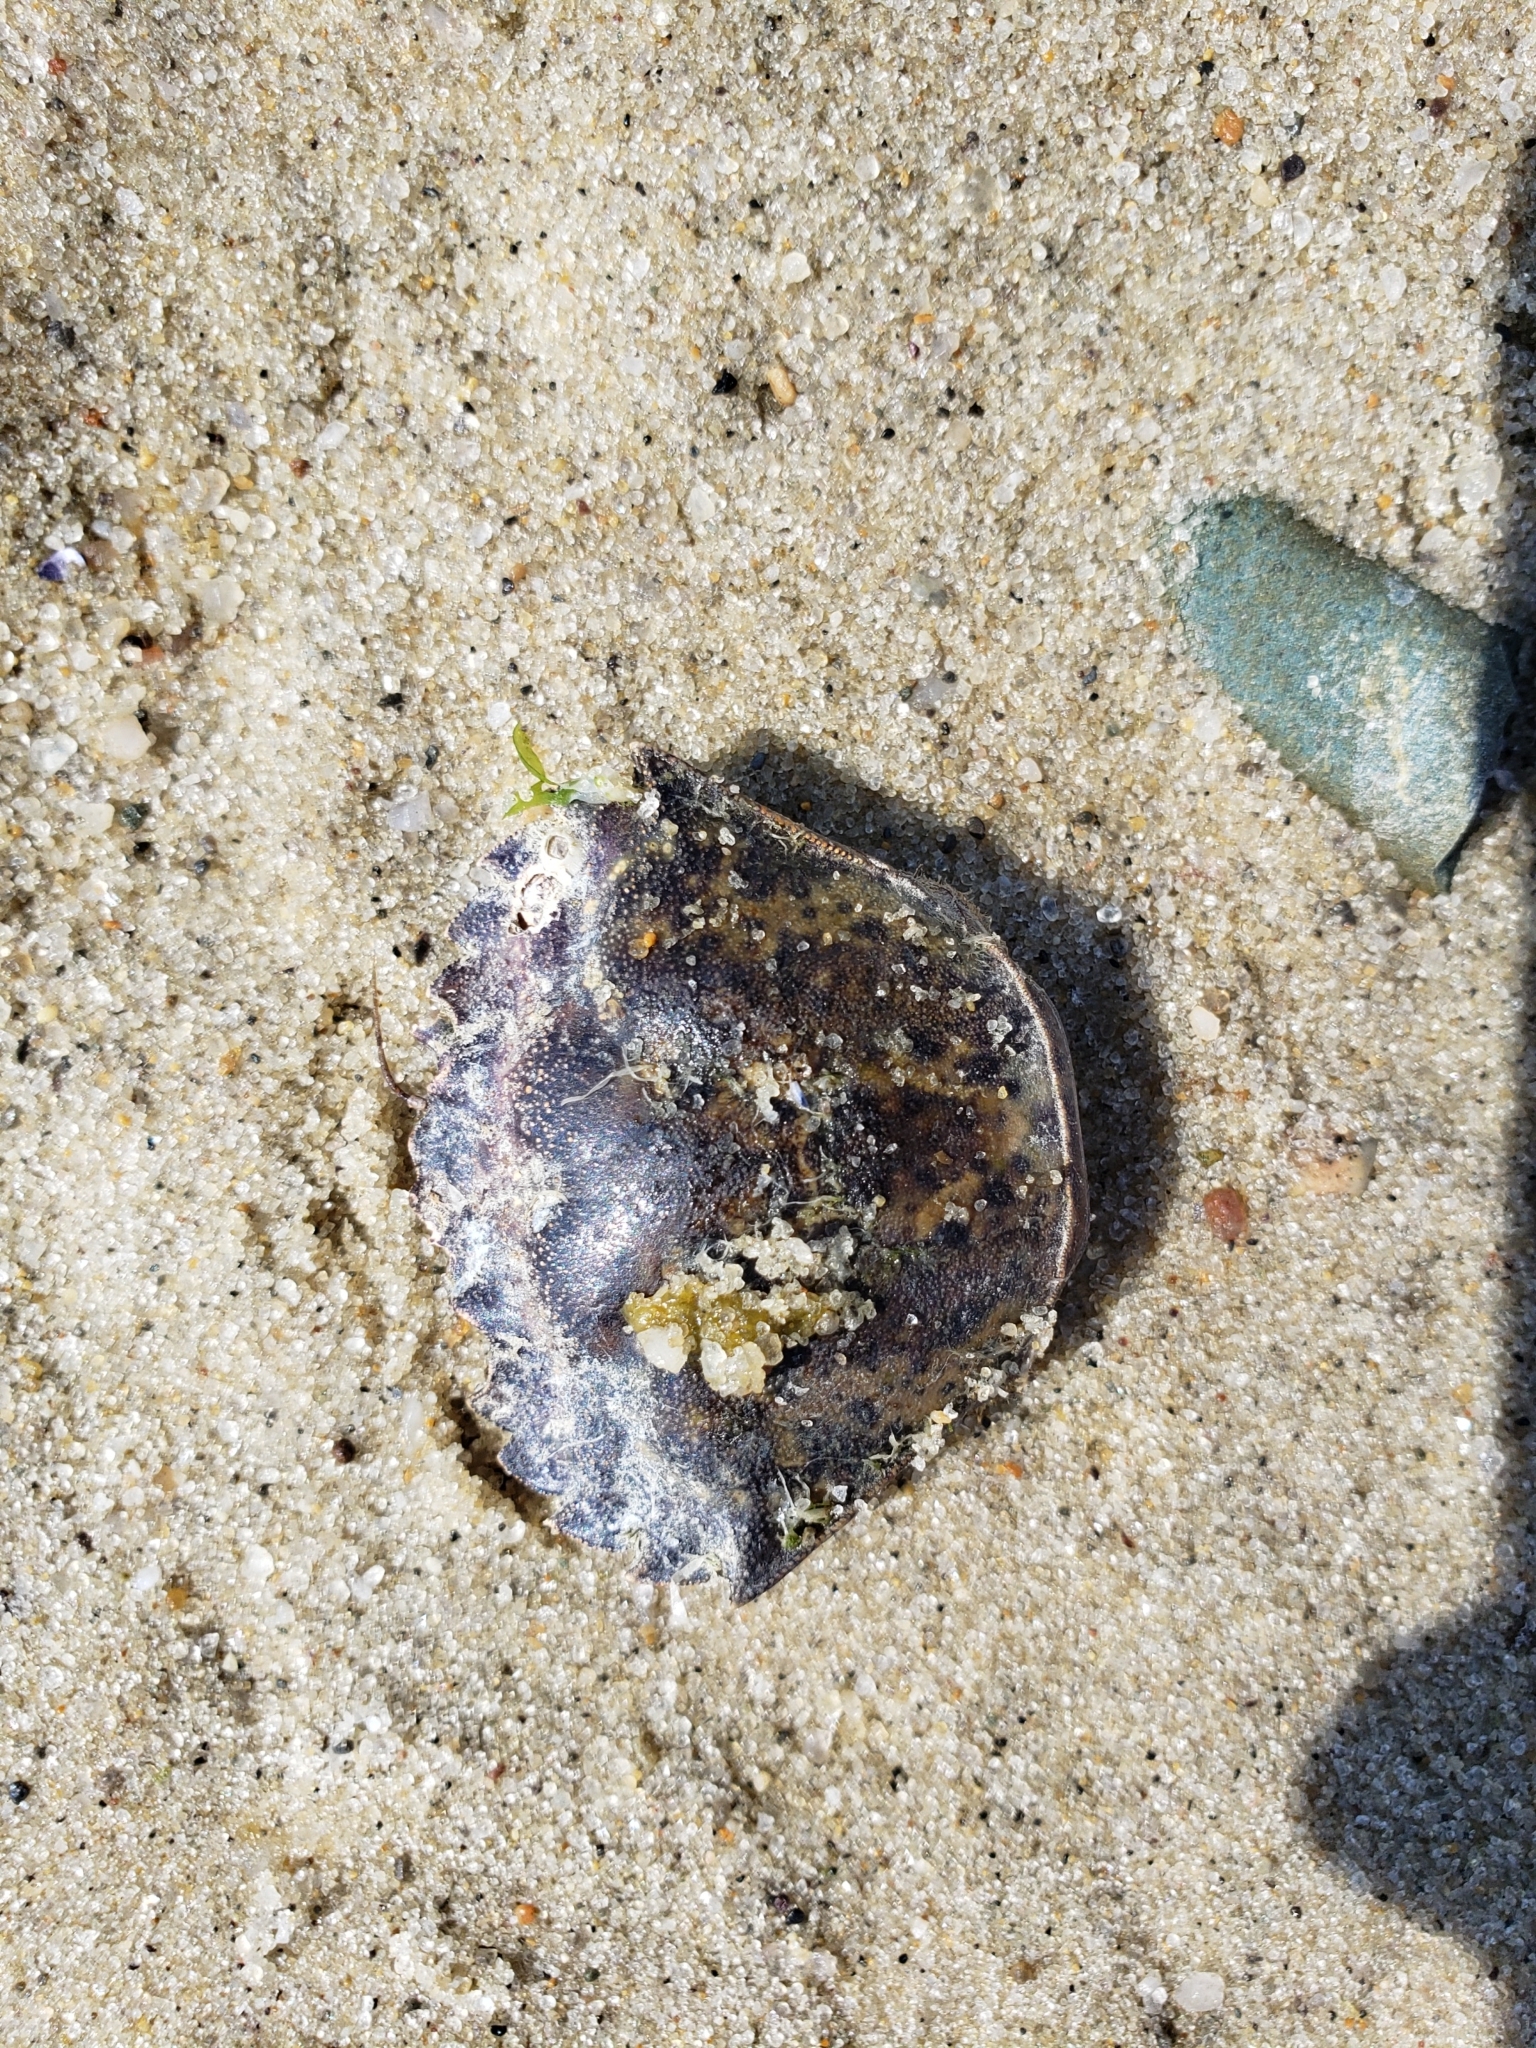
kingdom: Animalia
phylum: Arthropoda
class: Malacostraca
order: Decapoda
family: Carcinidae
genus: Carcinus
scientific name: Carcinus maenas
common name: European green crab
